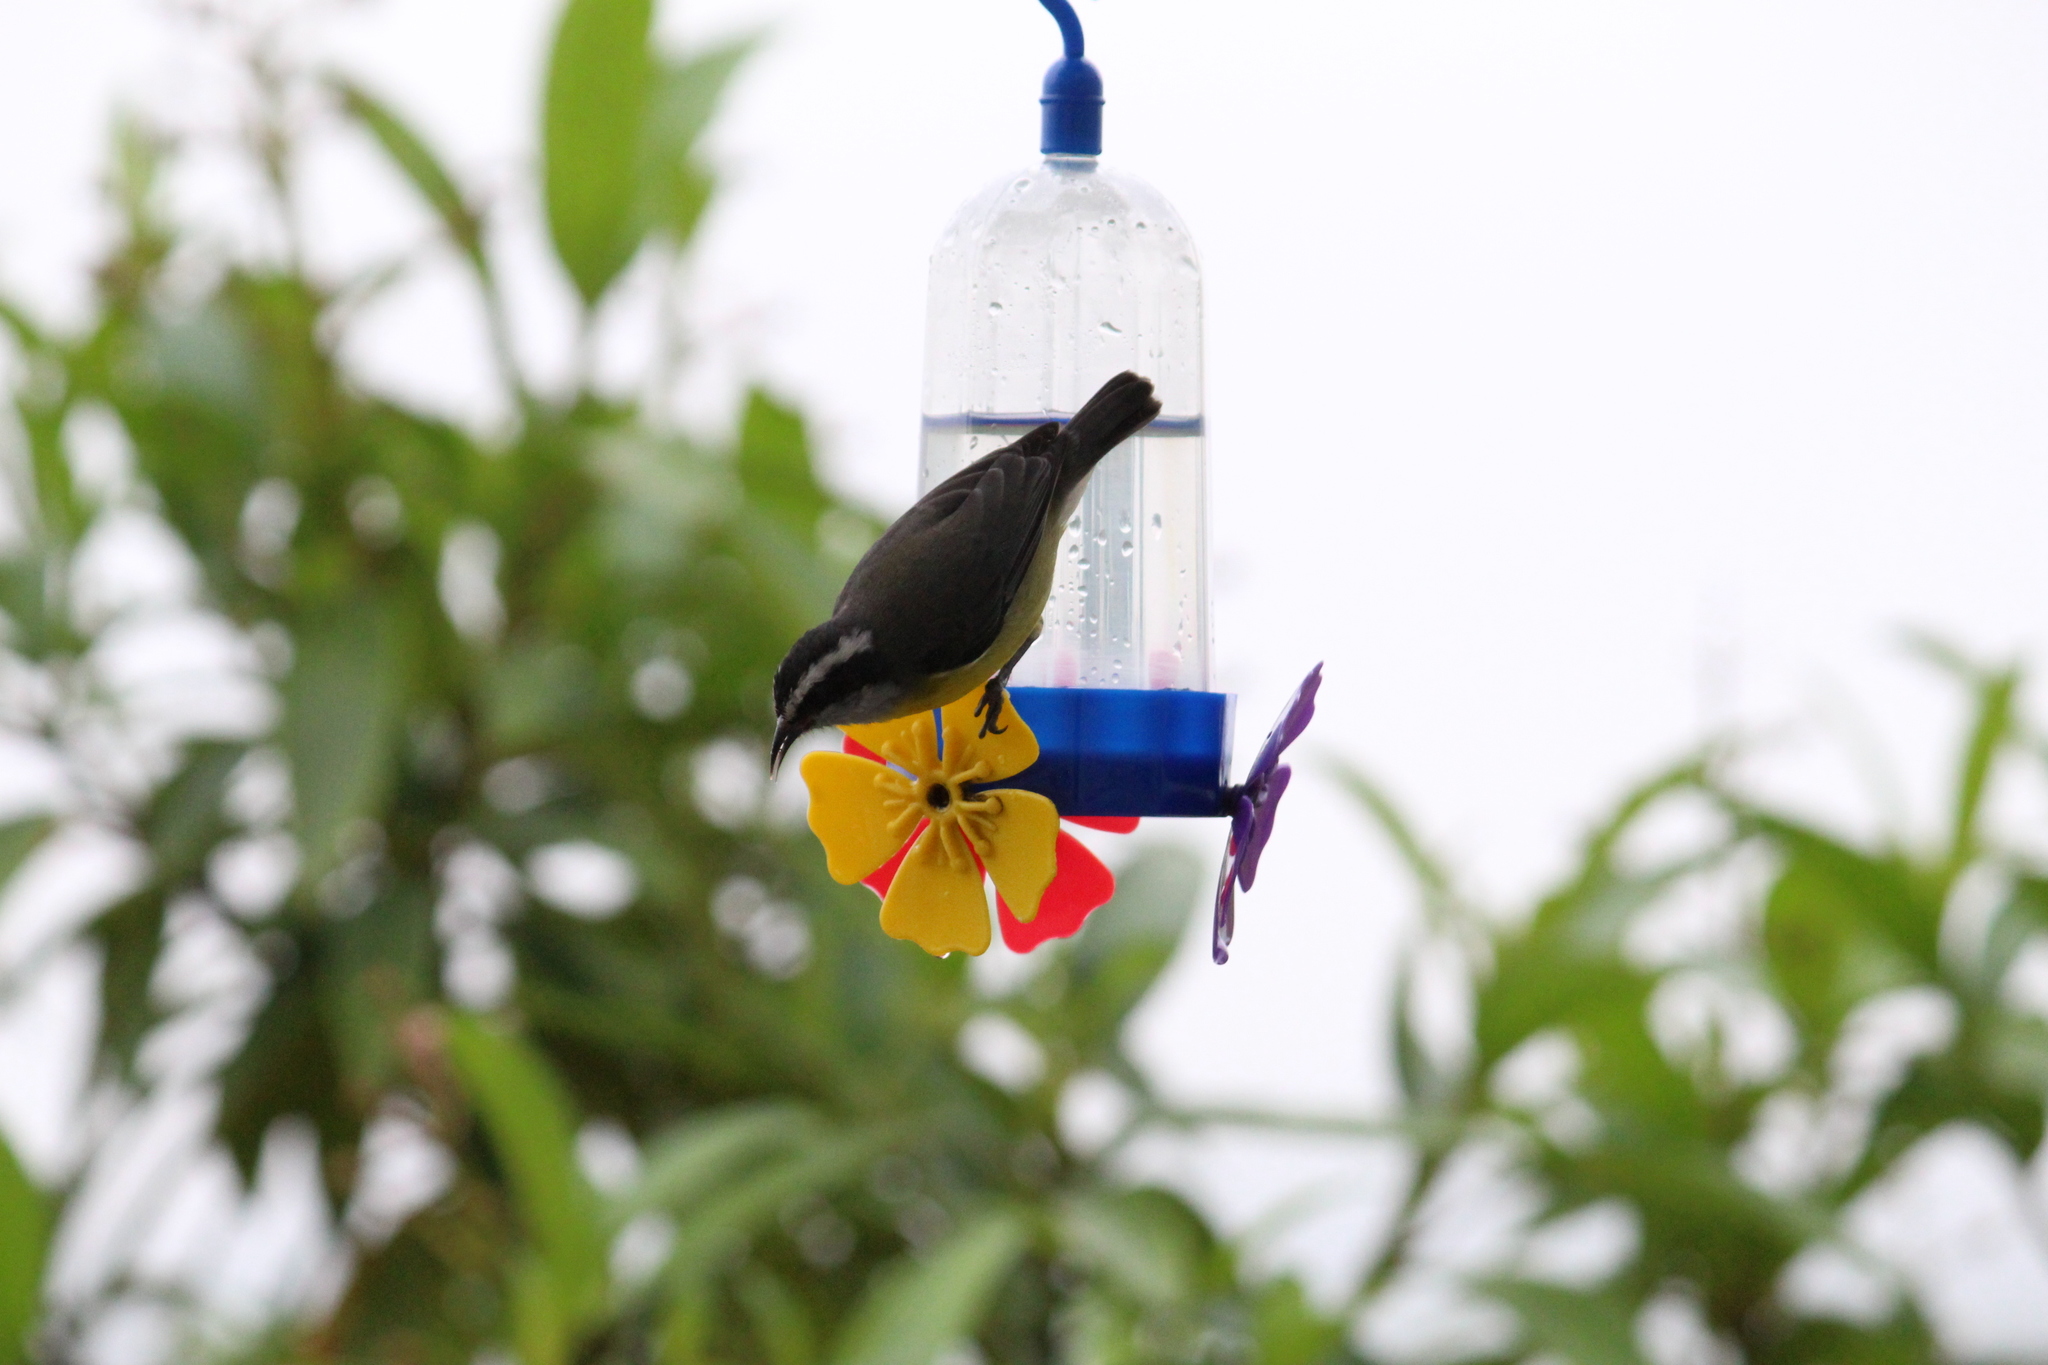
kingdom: Animalia
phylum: Chordata
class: Aves
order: Passeriformes
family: Thraupidae
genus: Coereba
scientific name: Coereba flaveola
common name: Bananaquit
